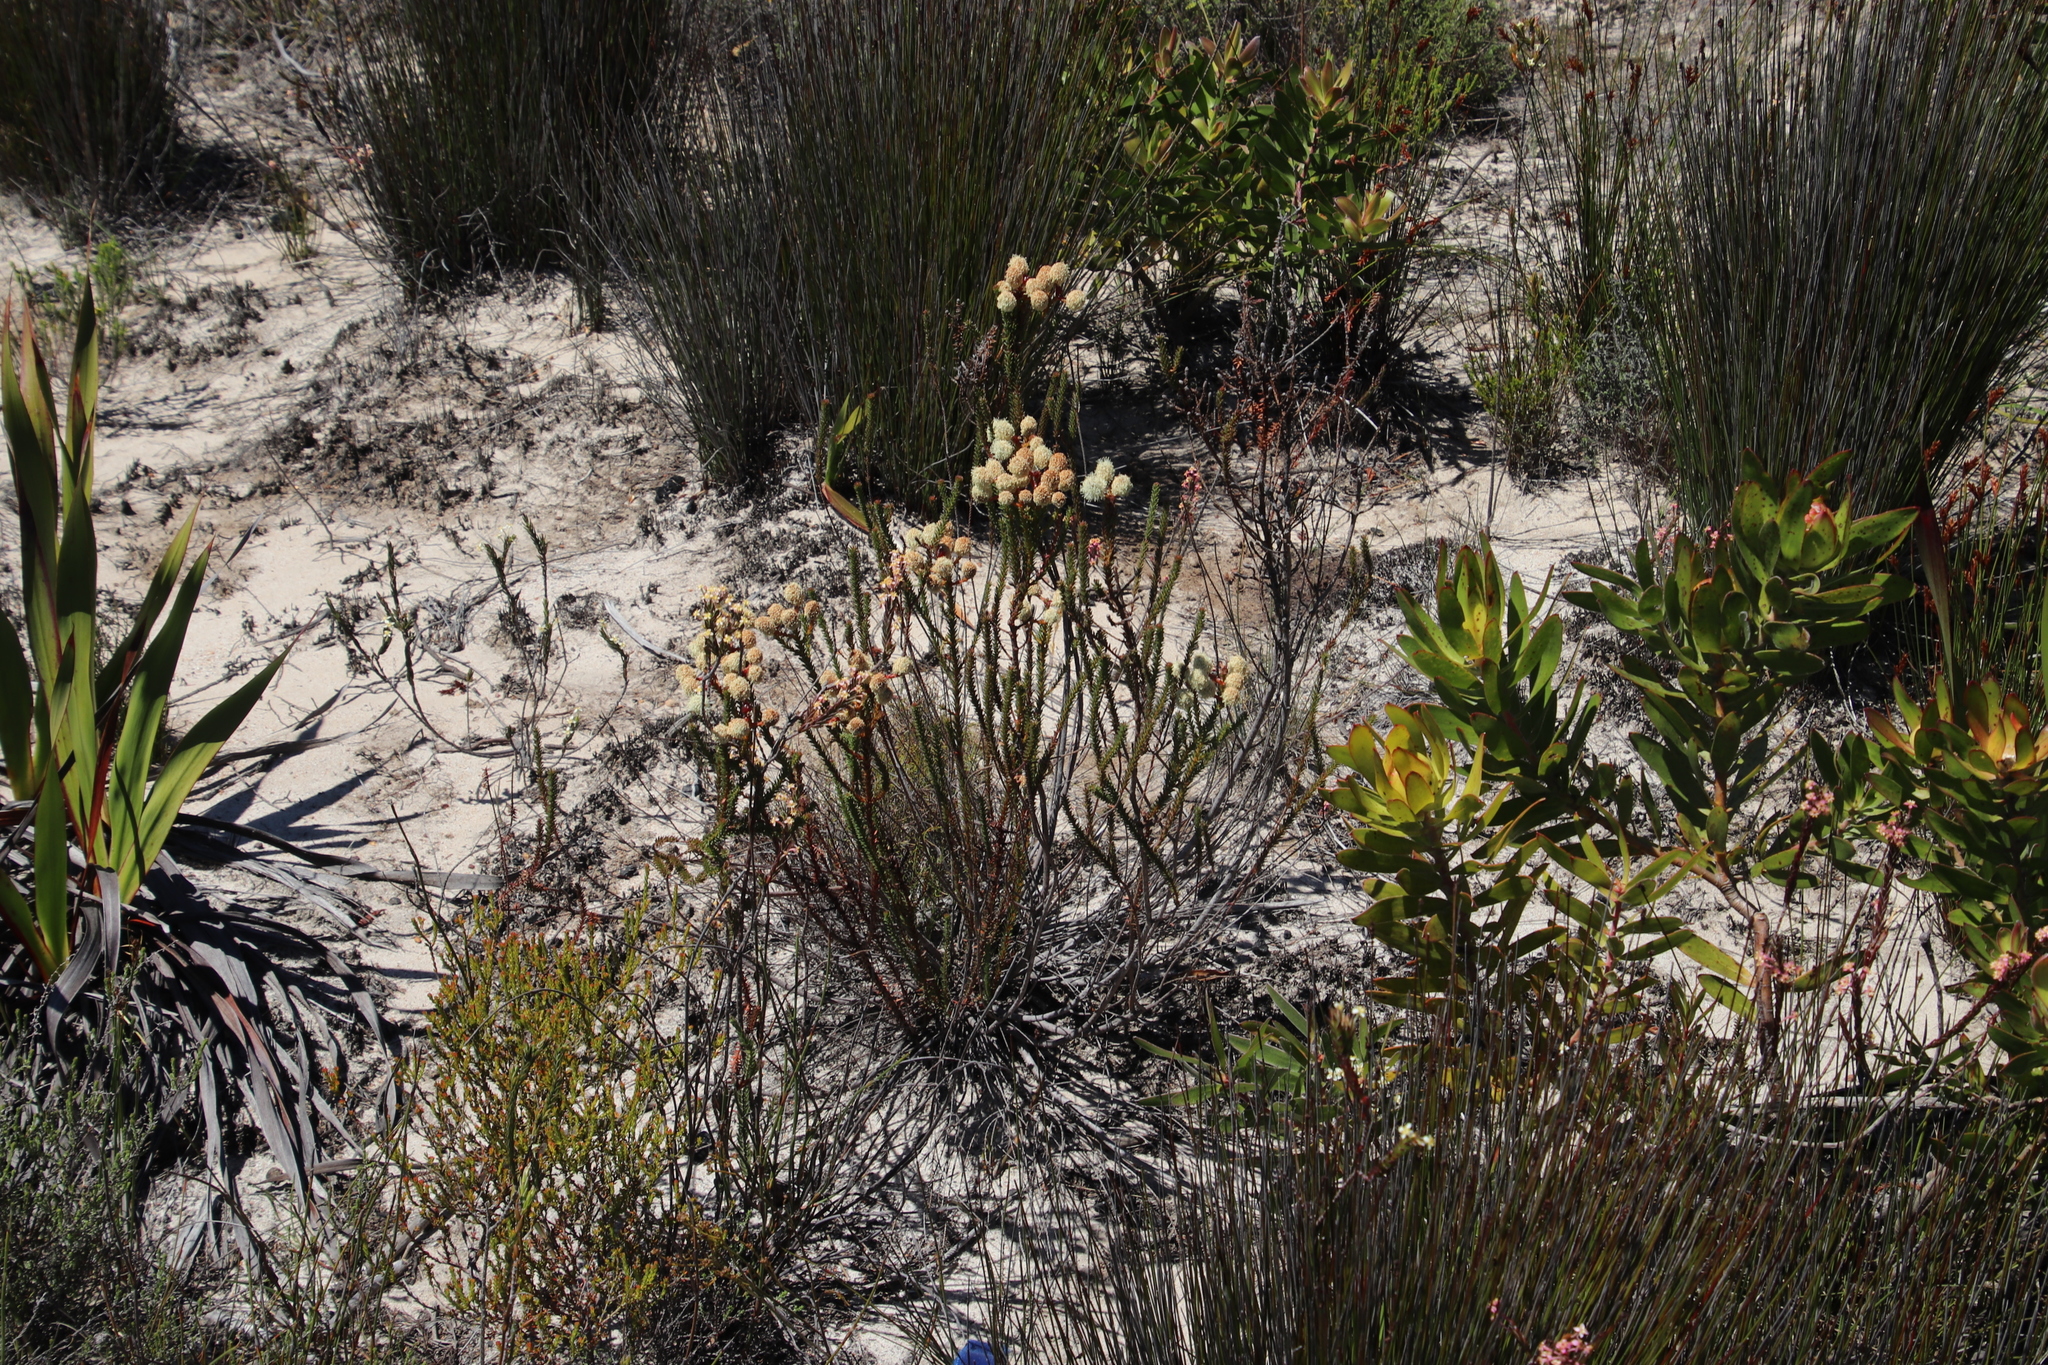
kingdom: Plantae
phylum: Tracheophyta
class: Magnoliopsida
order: Bruniales
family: Bruniaceae
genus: Berzelia
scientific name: Berzelia abrotanoides
